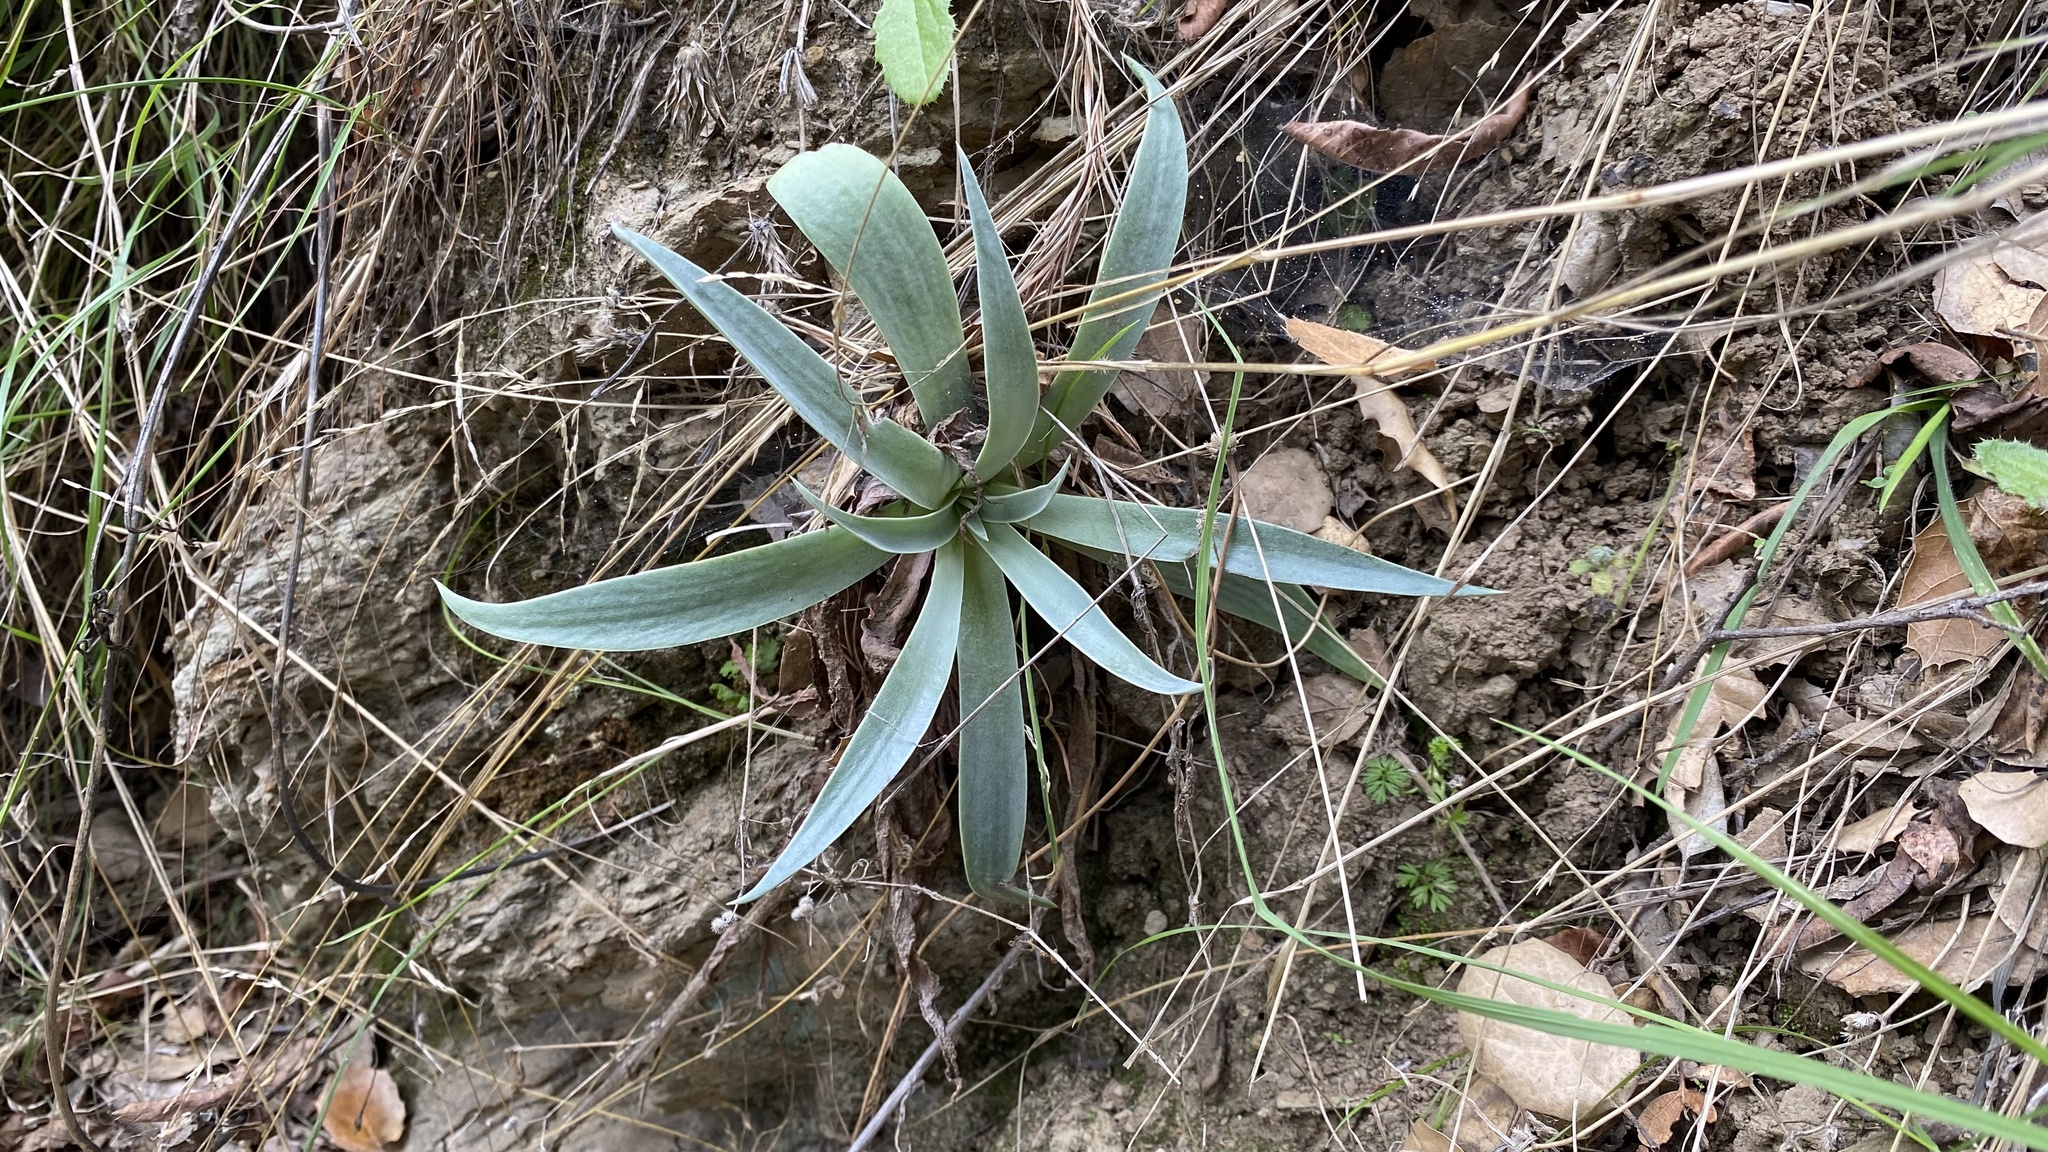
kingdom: Plantae
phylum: Tracheophyta
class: Magnoliopsida
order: Saxifragales
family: Crassulaceae
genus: Dudleya
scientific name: Dudleya lanceolata
